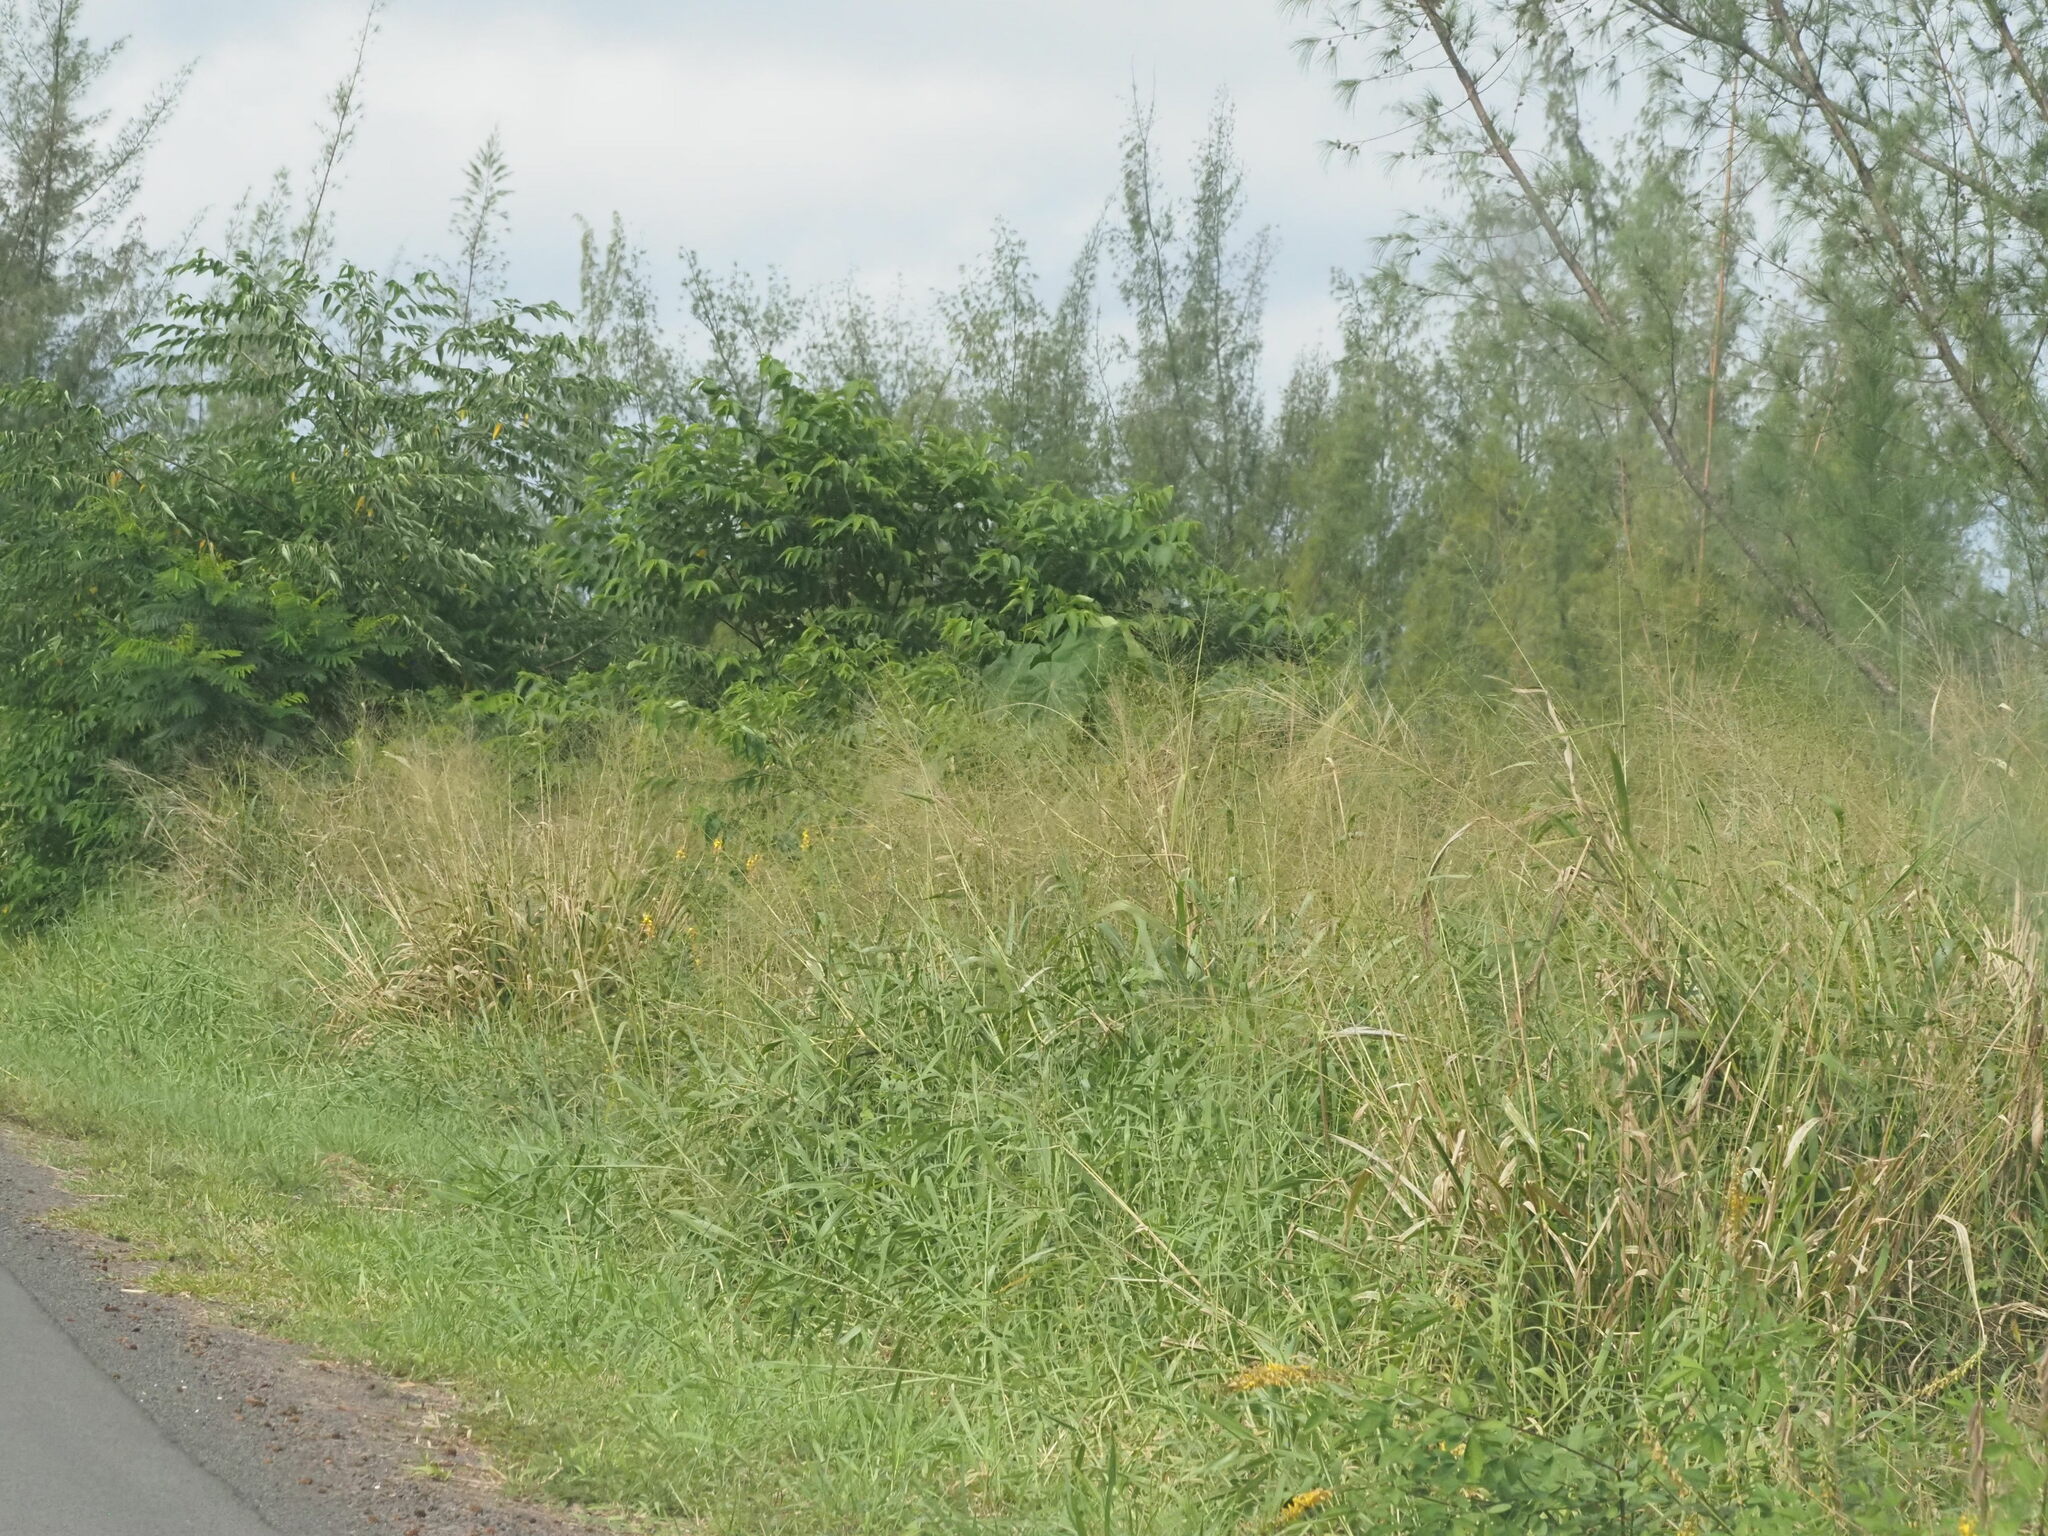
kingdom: Plantae
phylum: Tracheophyta
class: Liliopsida
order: Poales
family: Poaceae
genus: Megathyrsus
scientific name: Megathyrsus maximus
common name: Guineagrass
